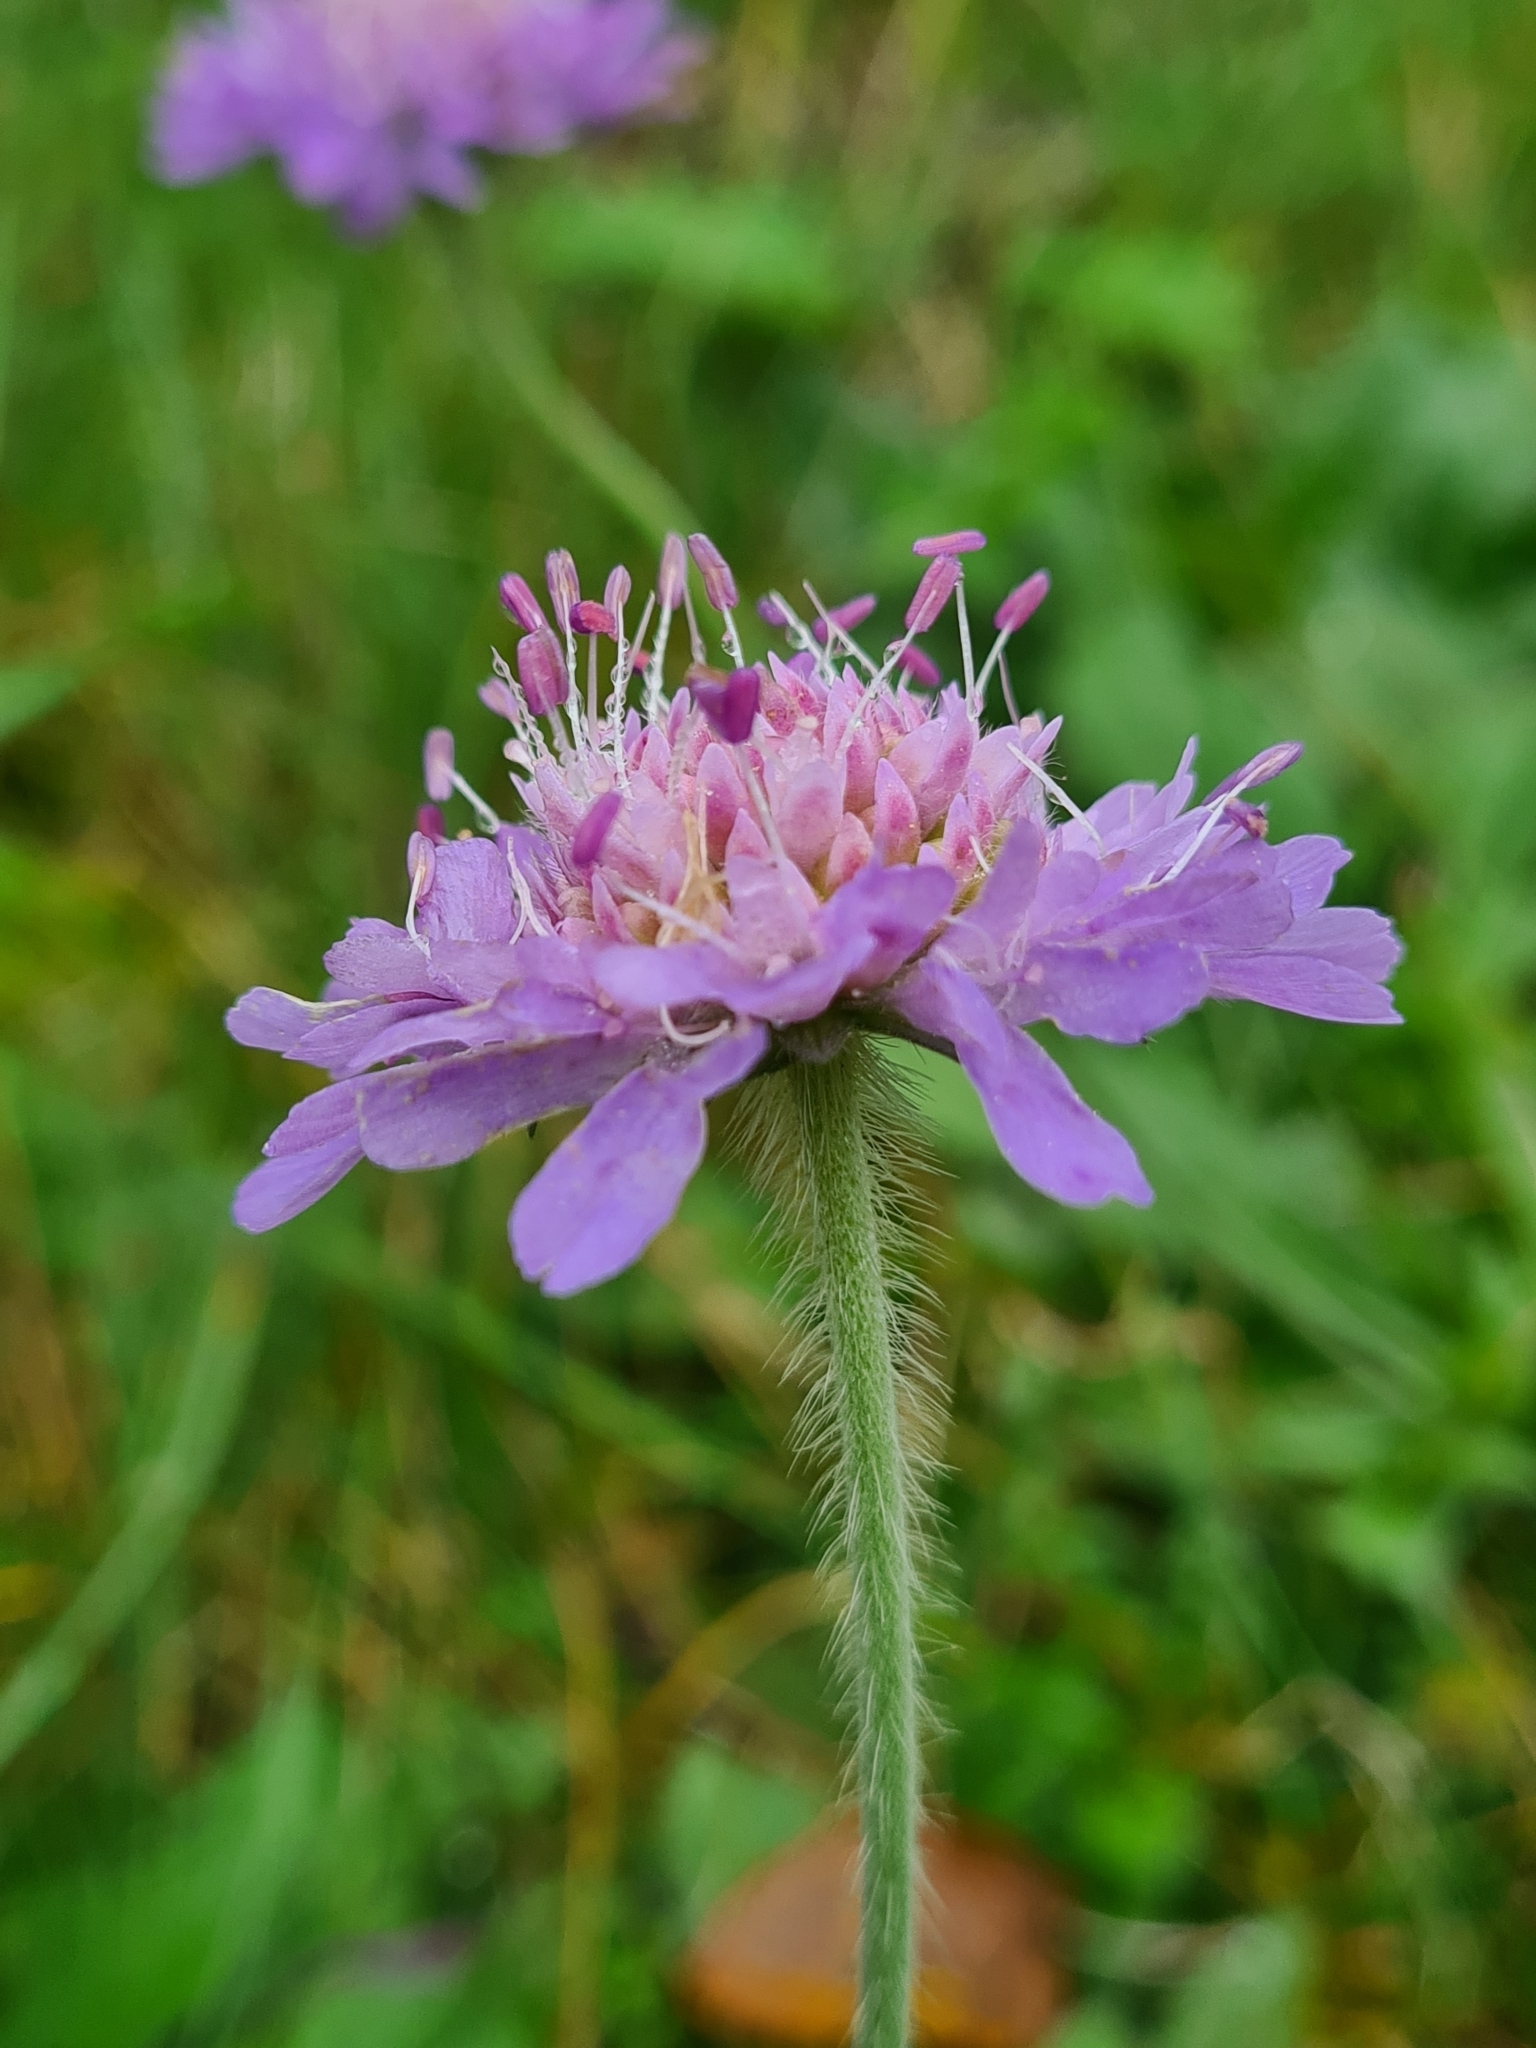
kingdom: Plantae
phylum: Tracheophyta
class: Magnoliopsida
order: Dipsacales
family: Caprifoliaceae
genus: Knautia
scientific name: Knautia arvensis
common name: Field scabiosa
